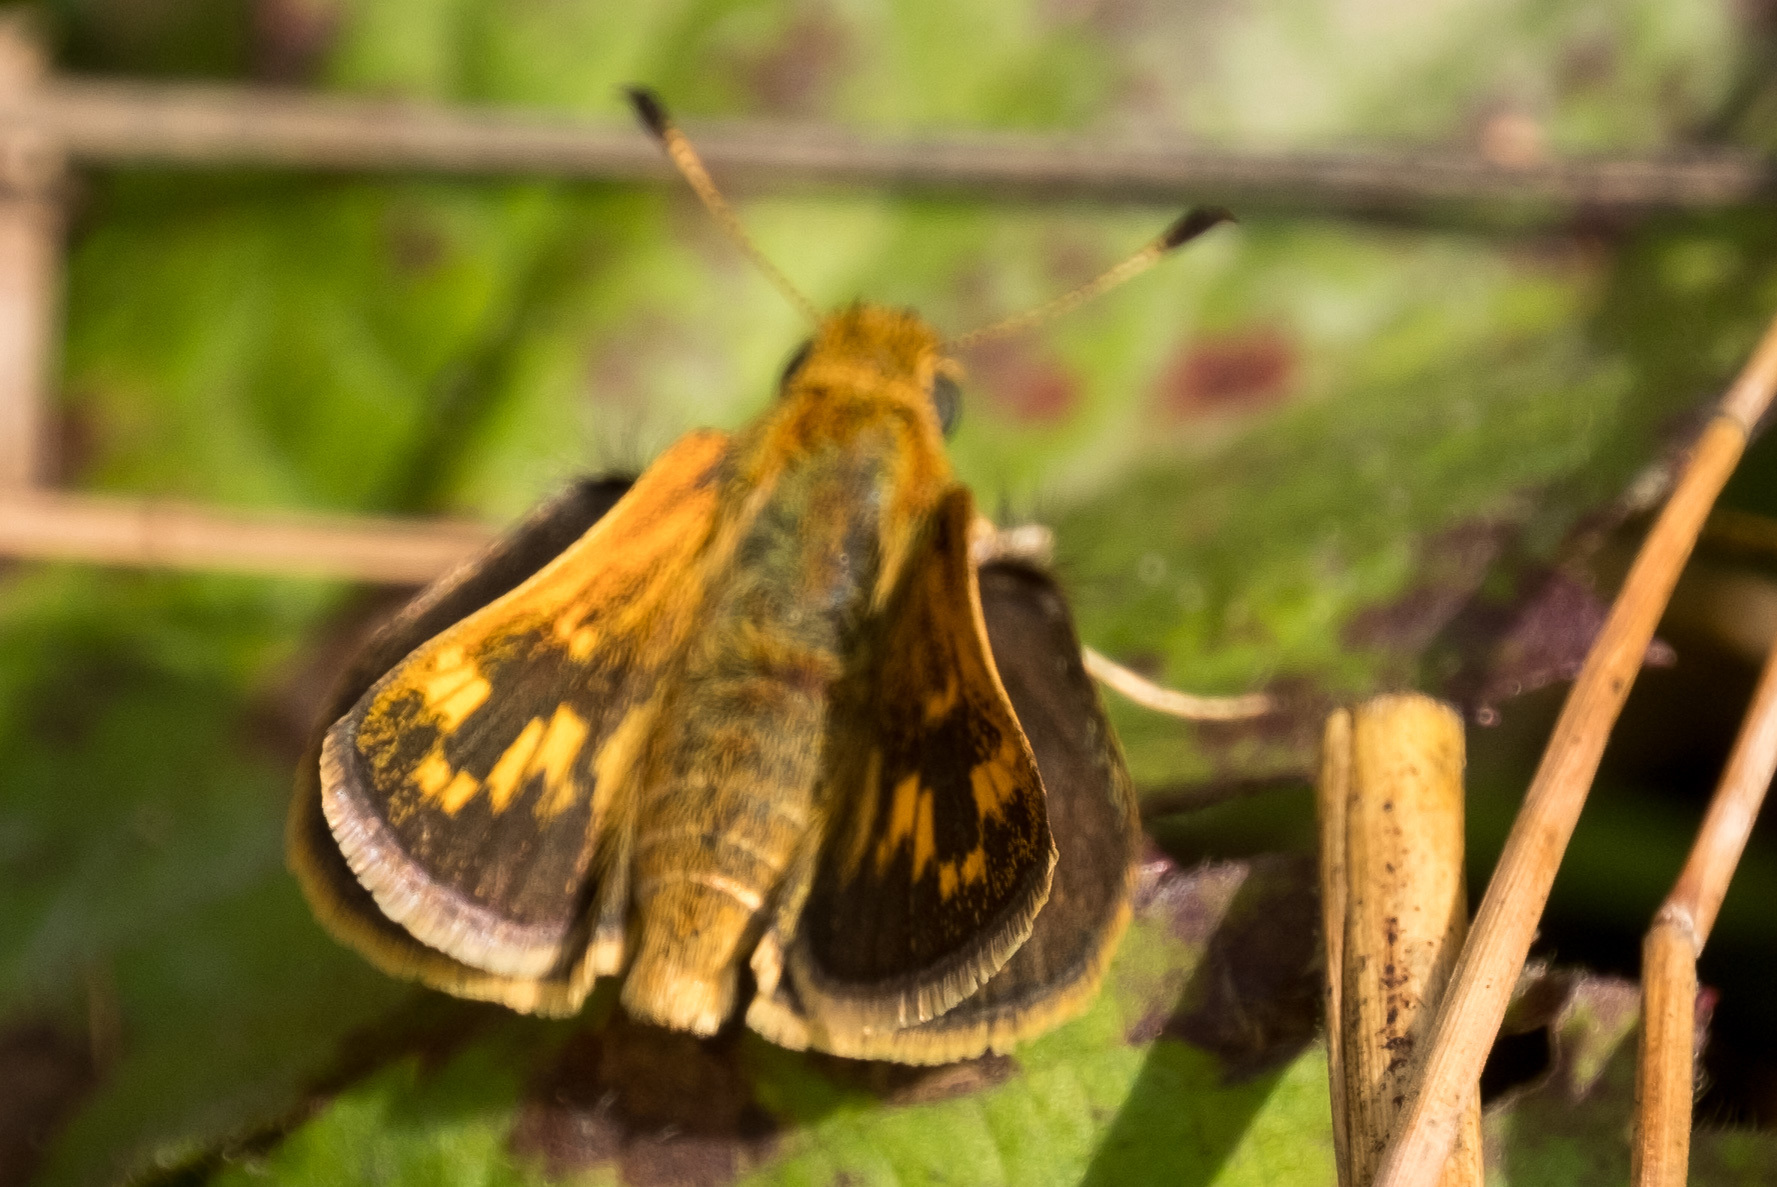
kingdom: Animalia
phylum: Arthropoda
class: Insecta
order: Lepidoptera
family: Hesperiidae
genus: Polites
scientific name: Polites coras
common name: Peck's skipper
